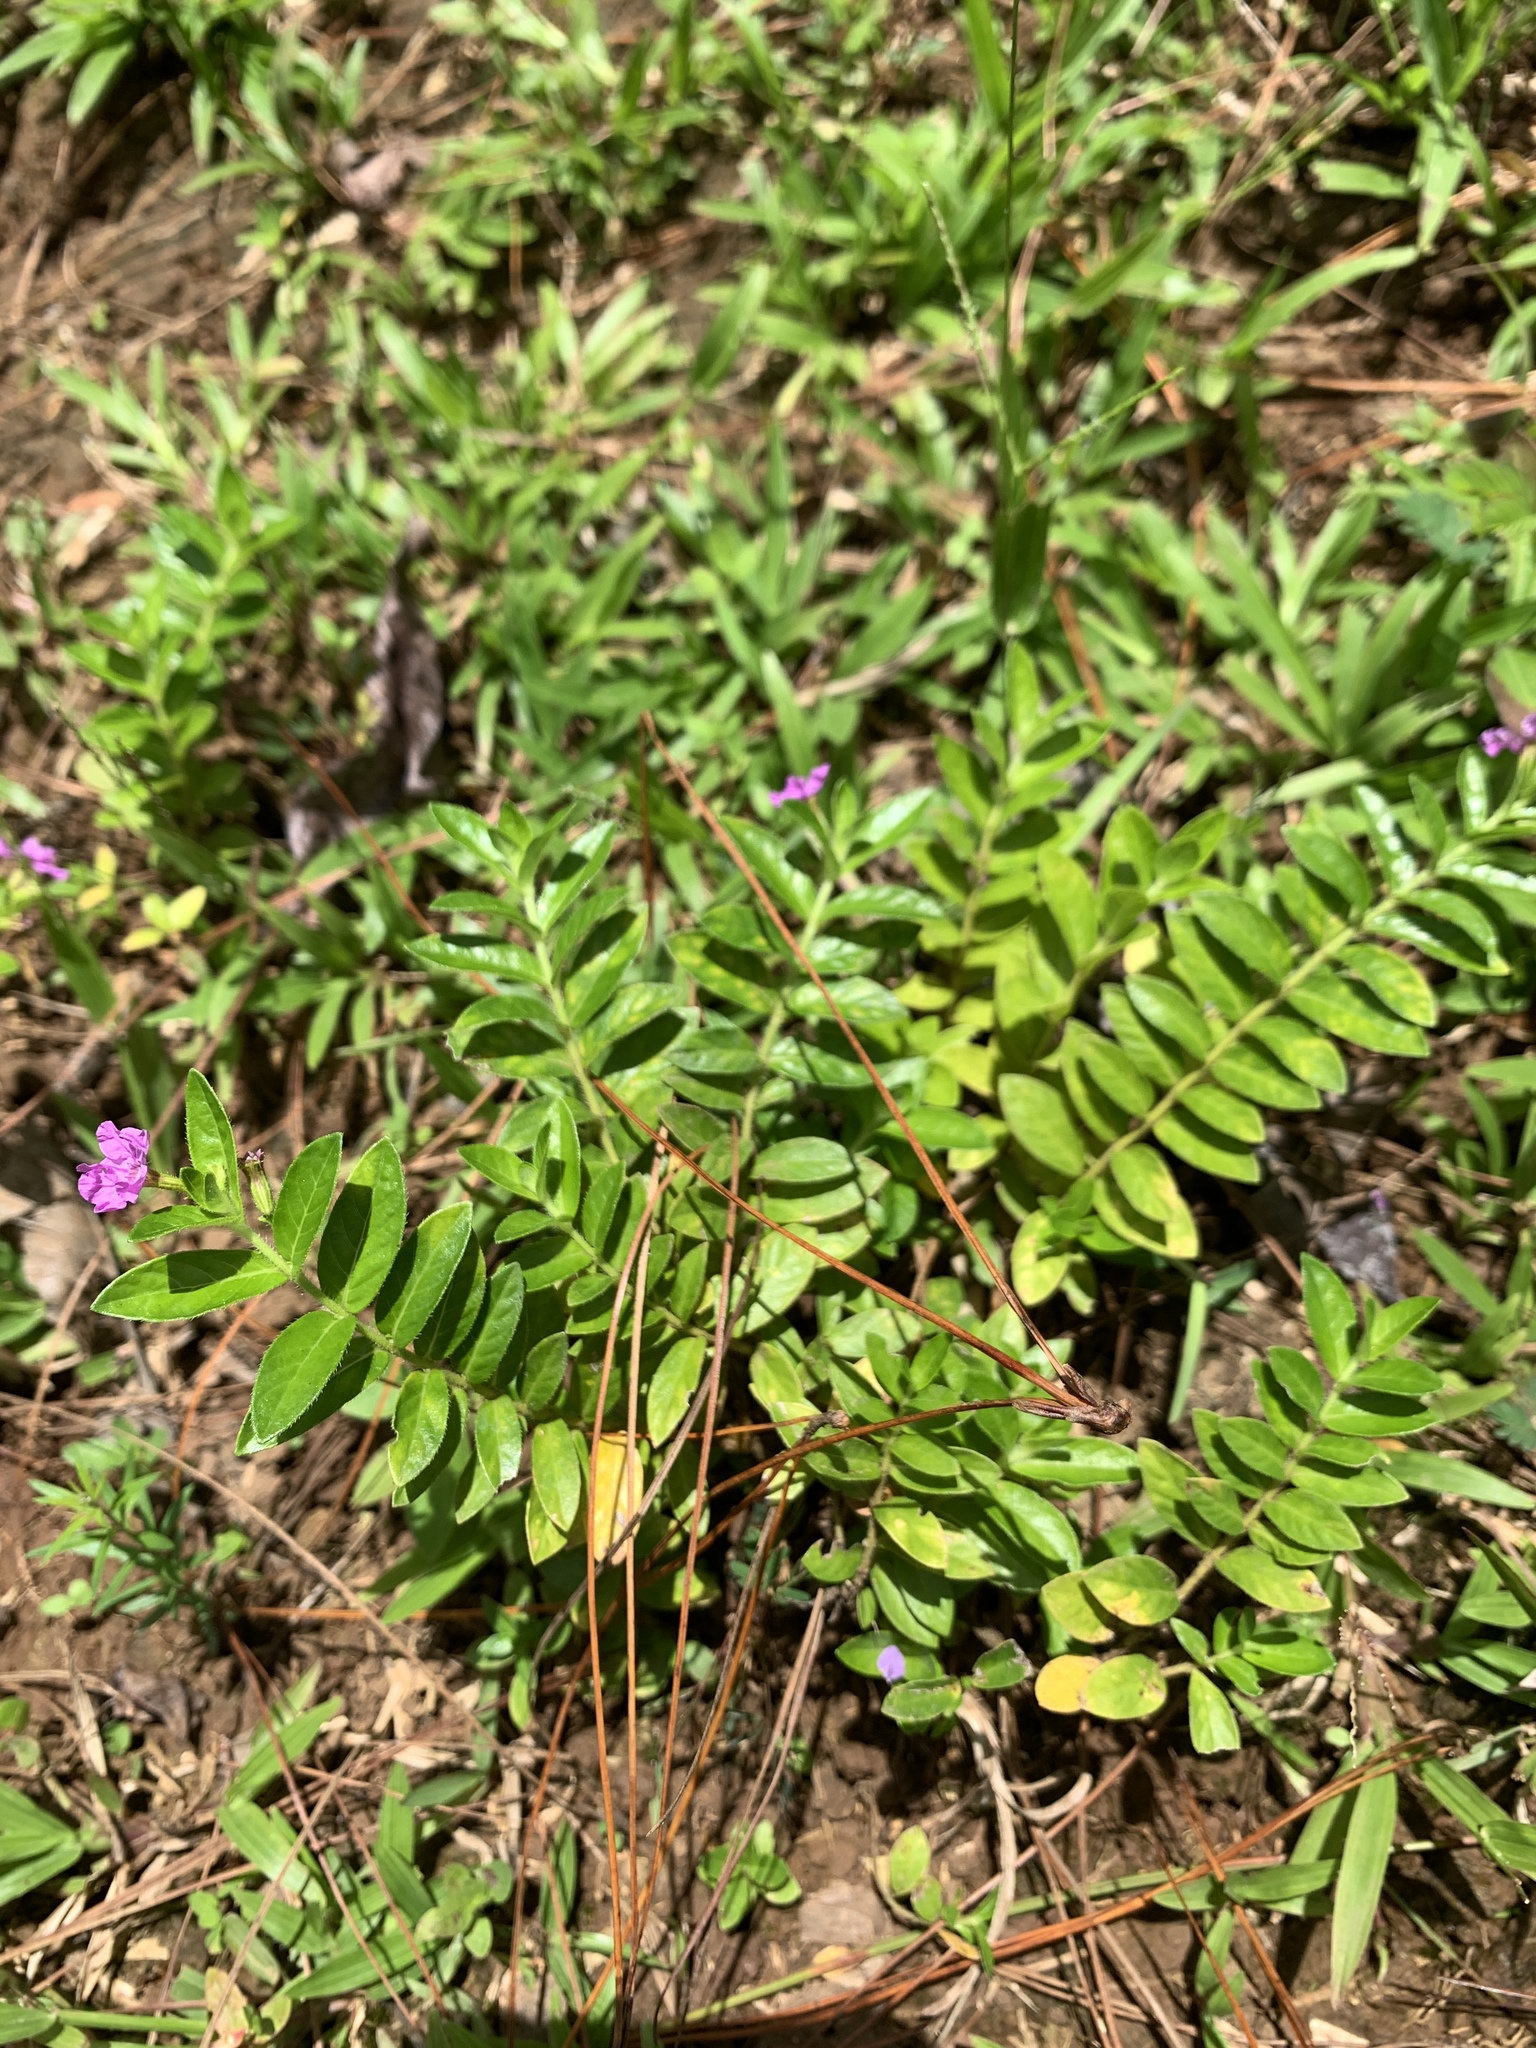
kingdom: Plantae
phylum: Tracheophyta
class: Magnoliopsida
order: Myrtales
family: Lythraceae
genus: Cuphea
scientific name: Cuphea hyssopifolia
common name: False heather
